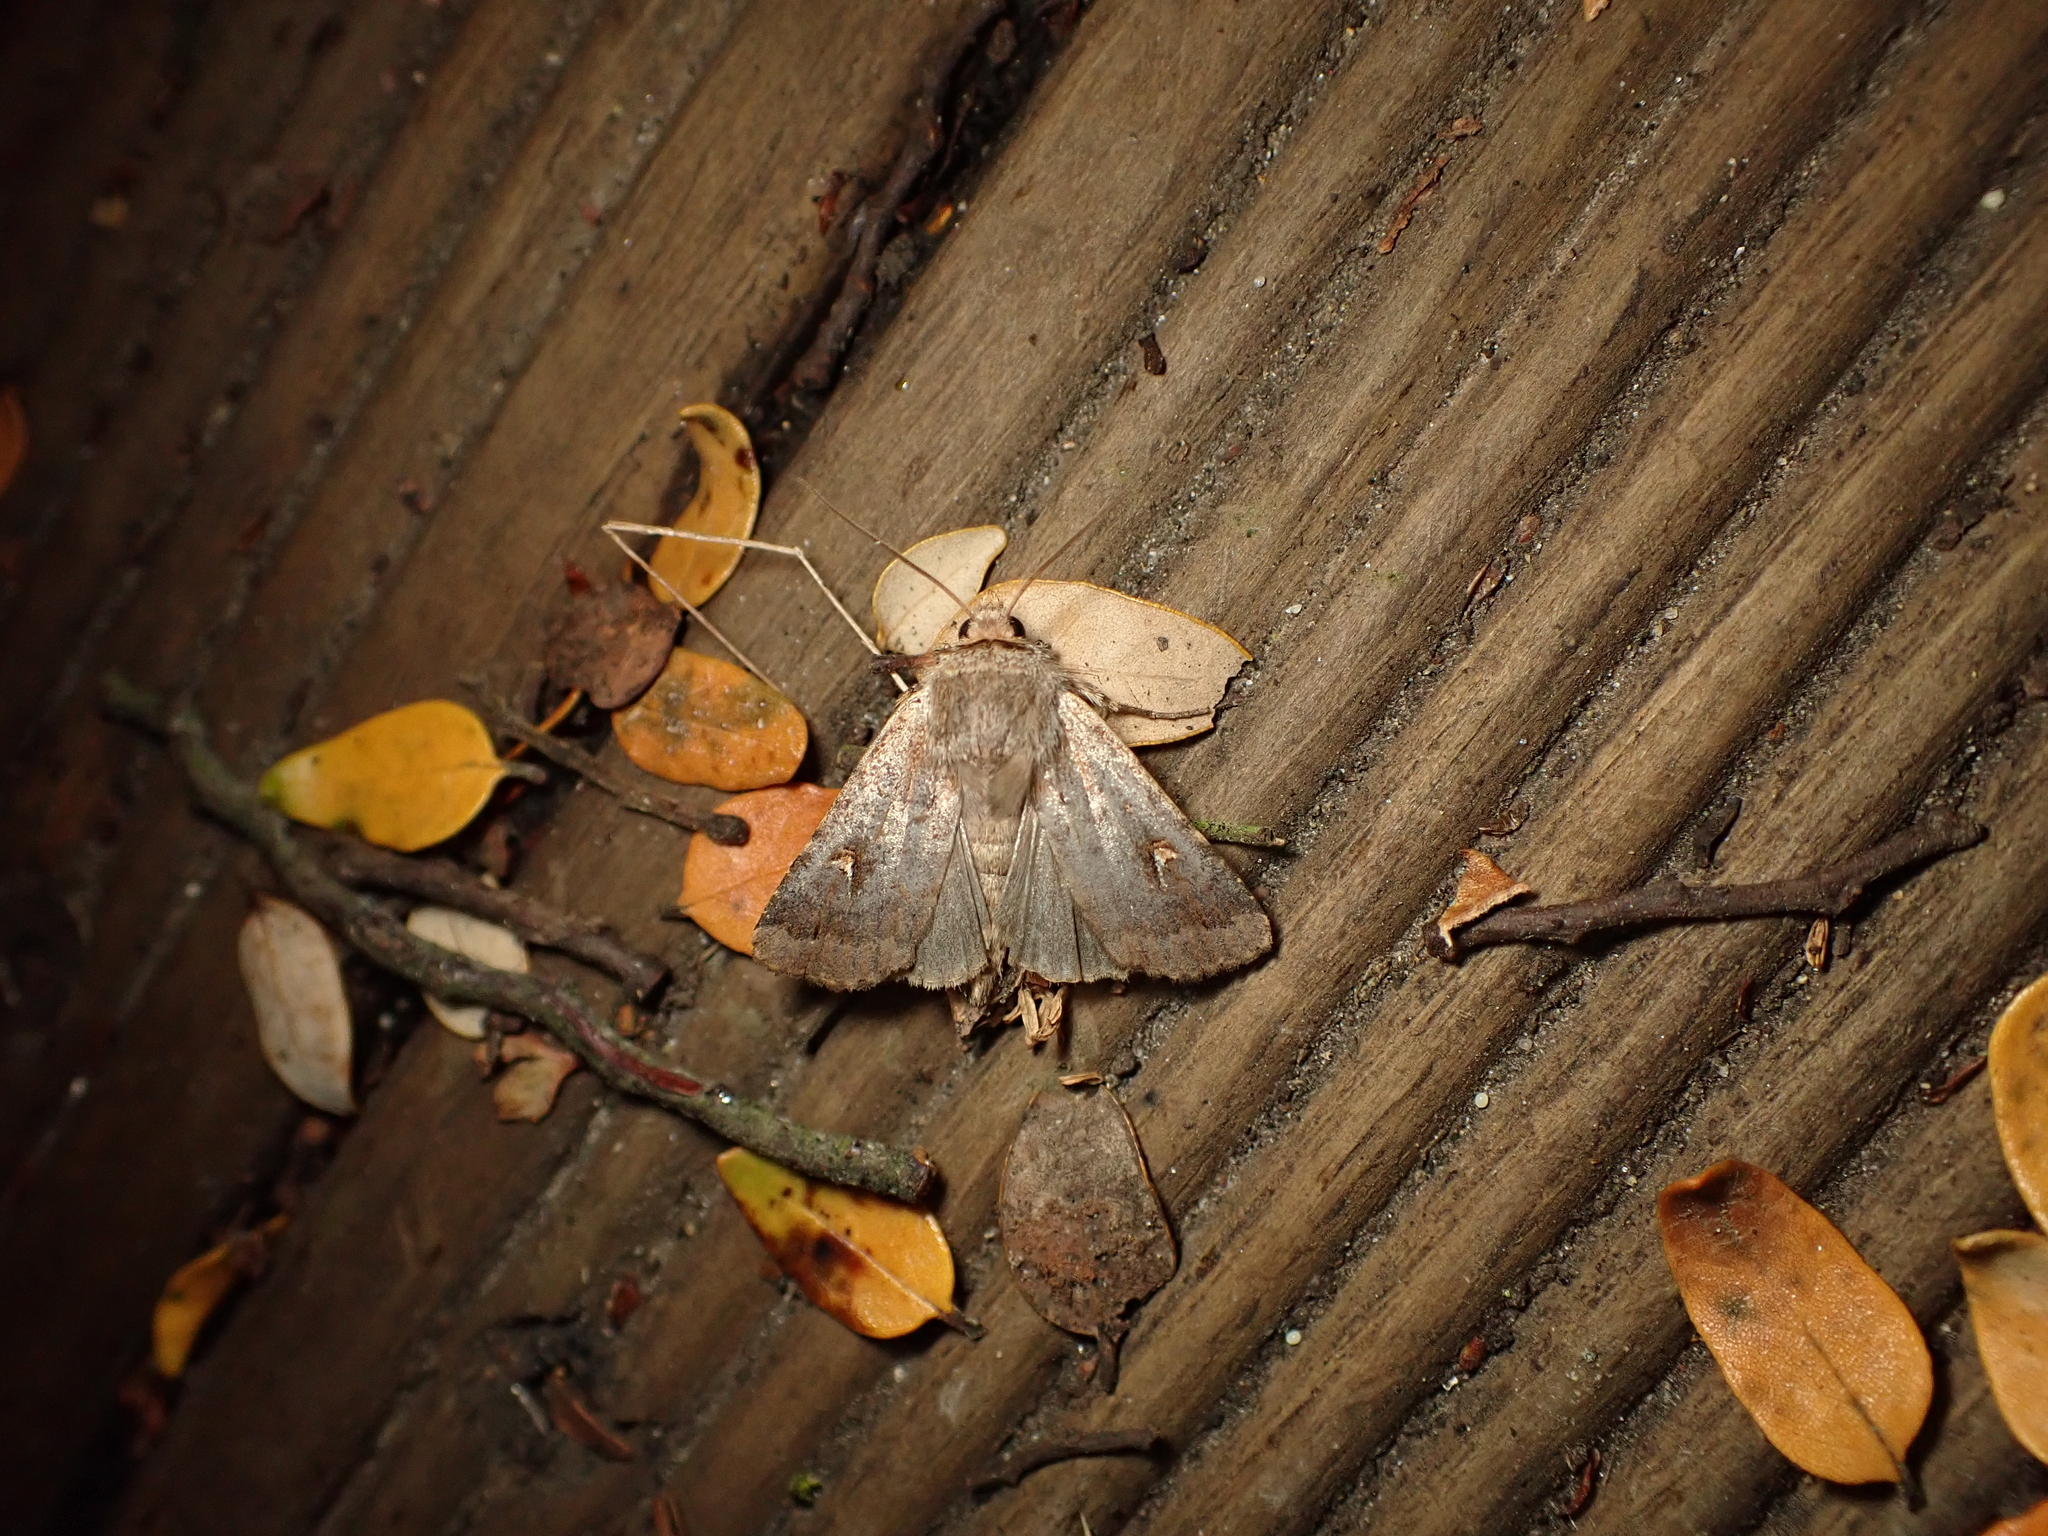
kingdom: Animalia
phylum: Arthropoda
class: Insecta
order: Lepidoptera
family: Noctuidae
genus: Proteuxoa
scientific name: Proteuxoa tetronycha
